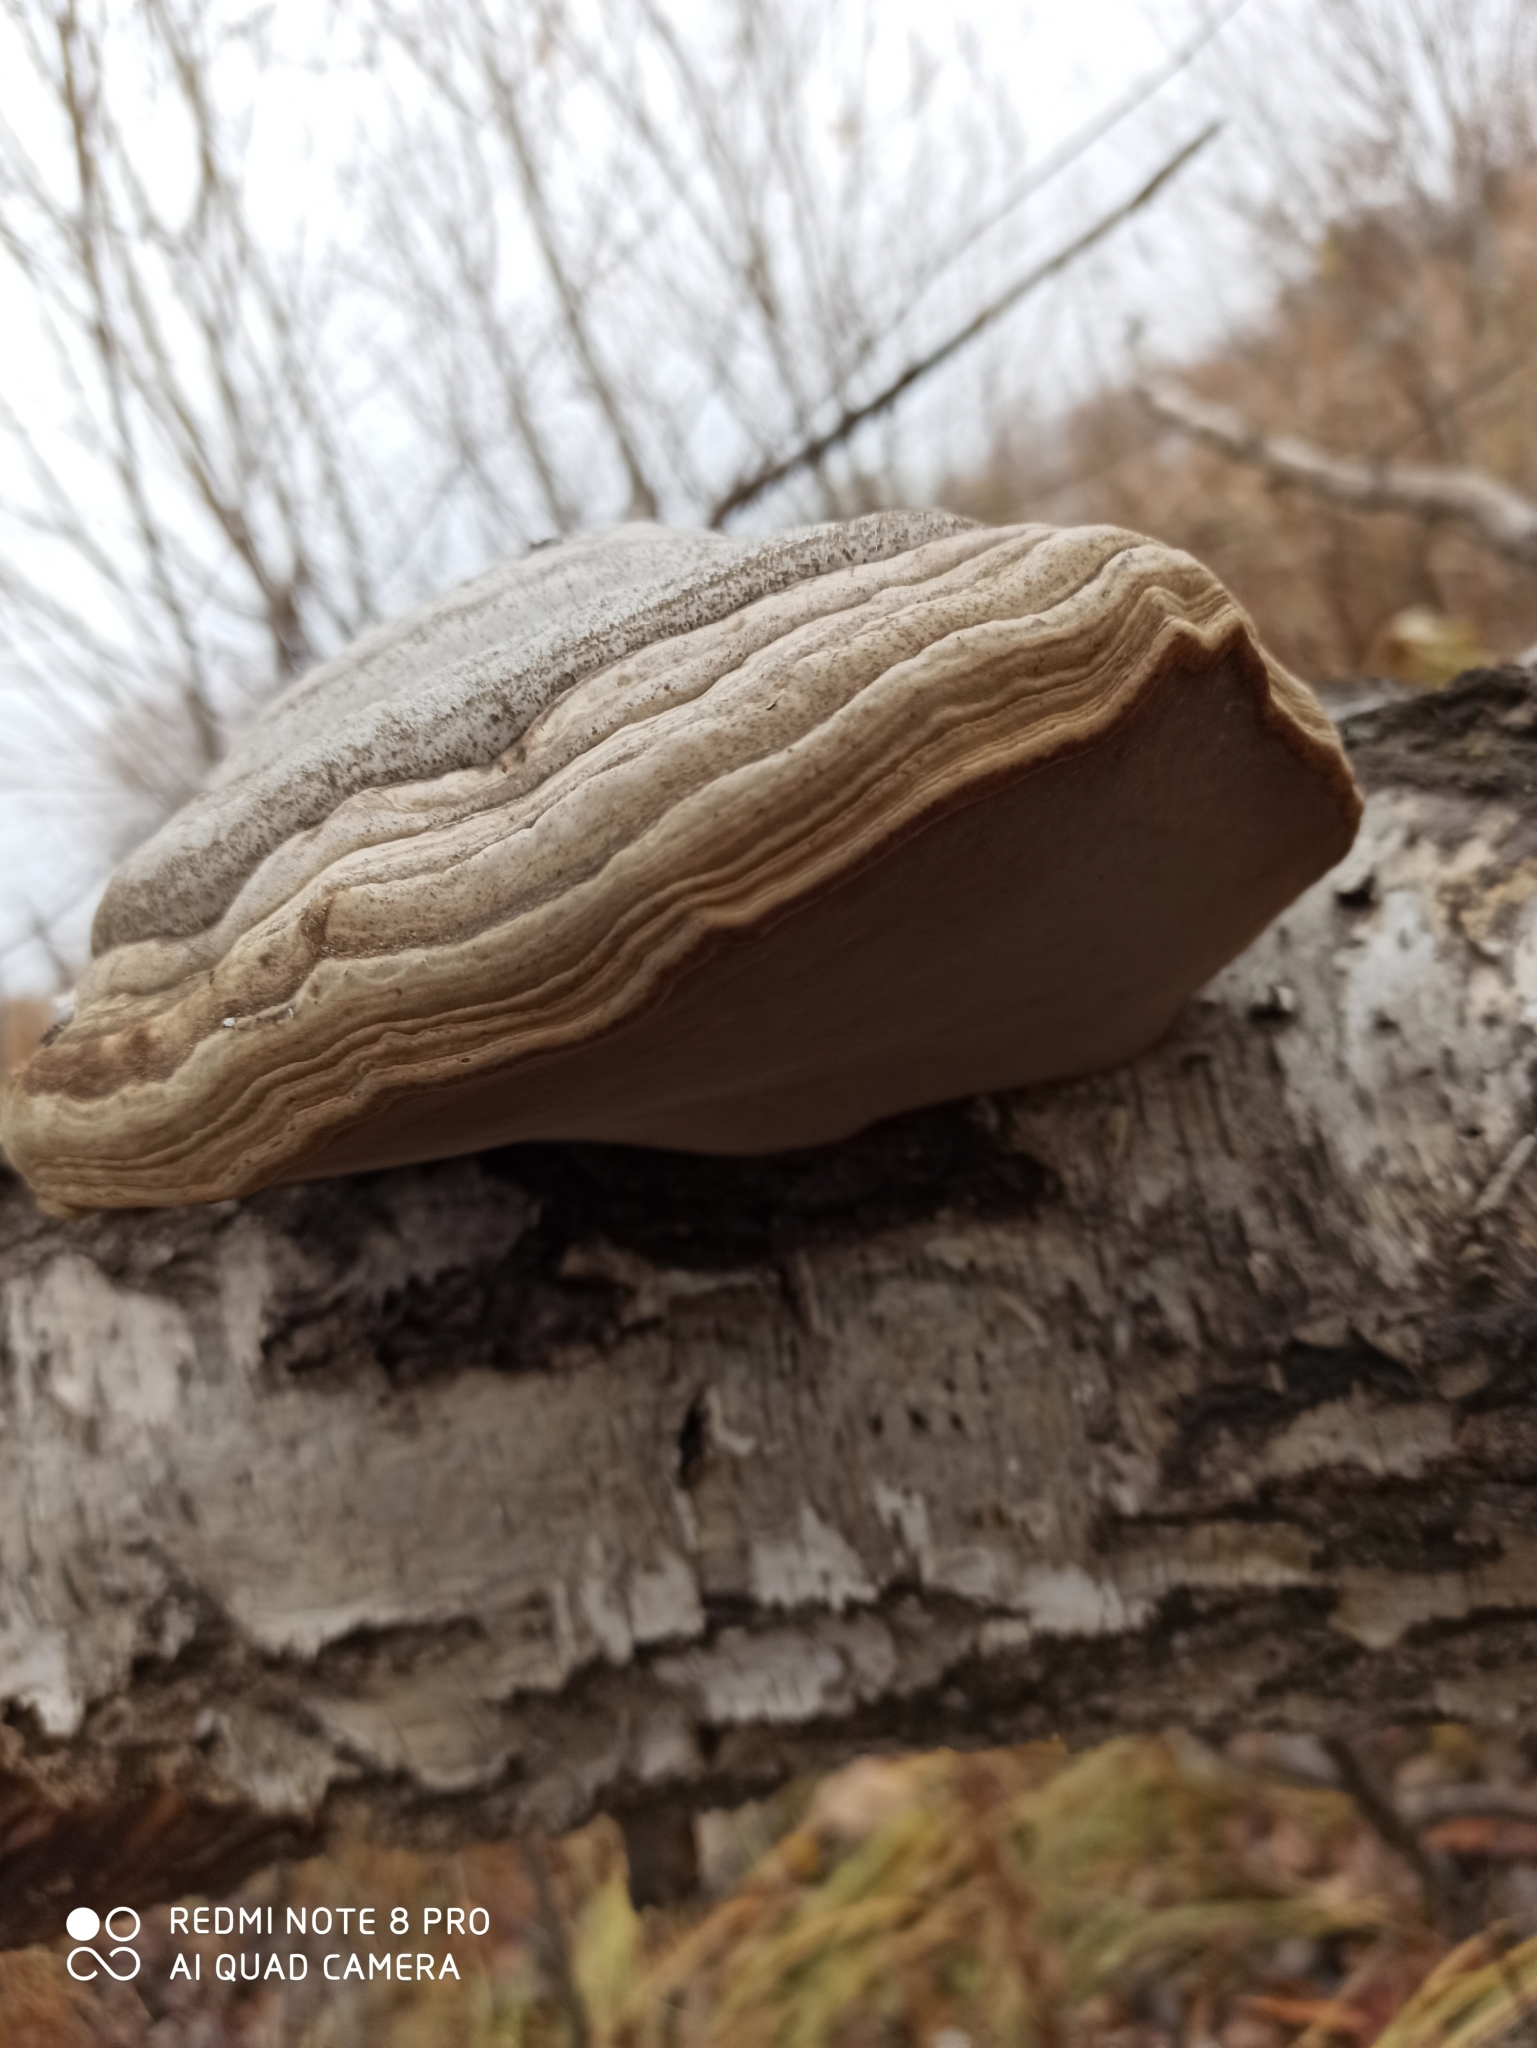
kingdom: Fungi
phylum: Basidiomycota
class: Agaricomycetes
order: Polyporales
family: Polyporaceae
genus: Fomes
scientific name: Fomes fomentarius
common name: Hoof fungus
